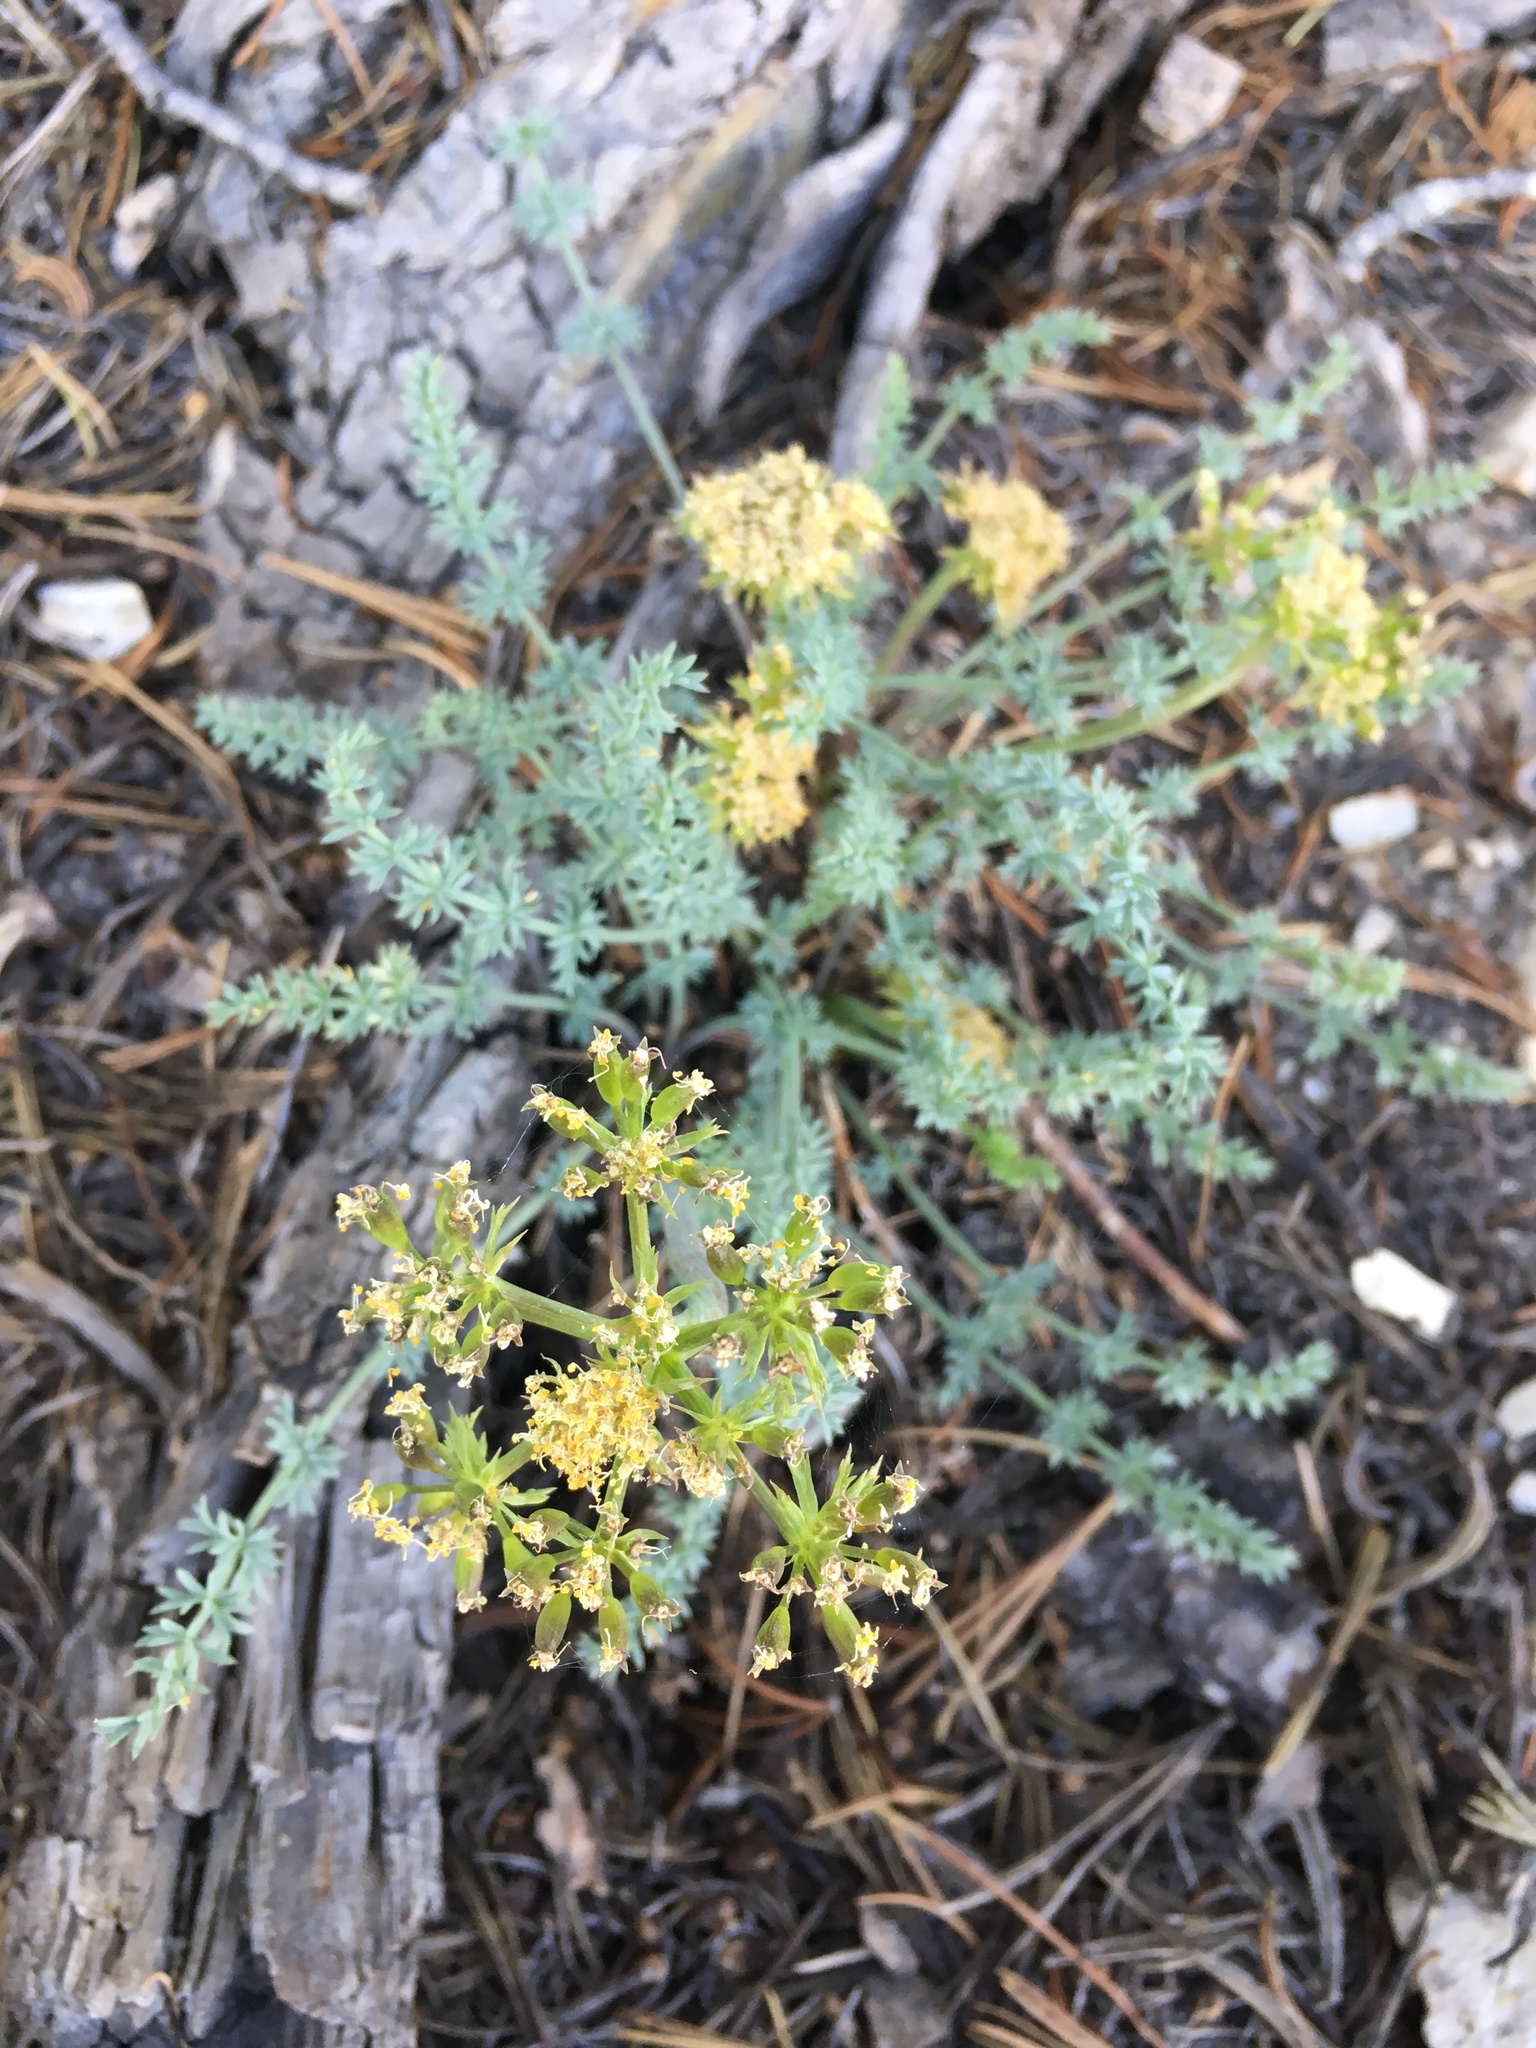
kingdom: Plantae
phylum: Tracheophyta
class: Magnoliopsida
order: Apiales
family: Apiaceae
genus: Lomatium
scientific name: Lomatium parryi
